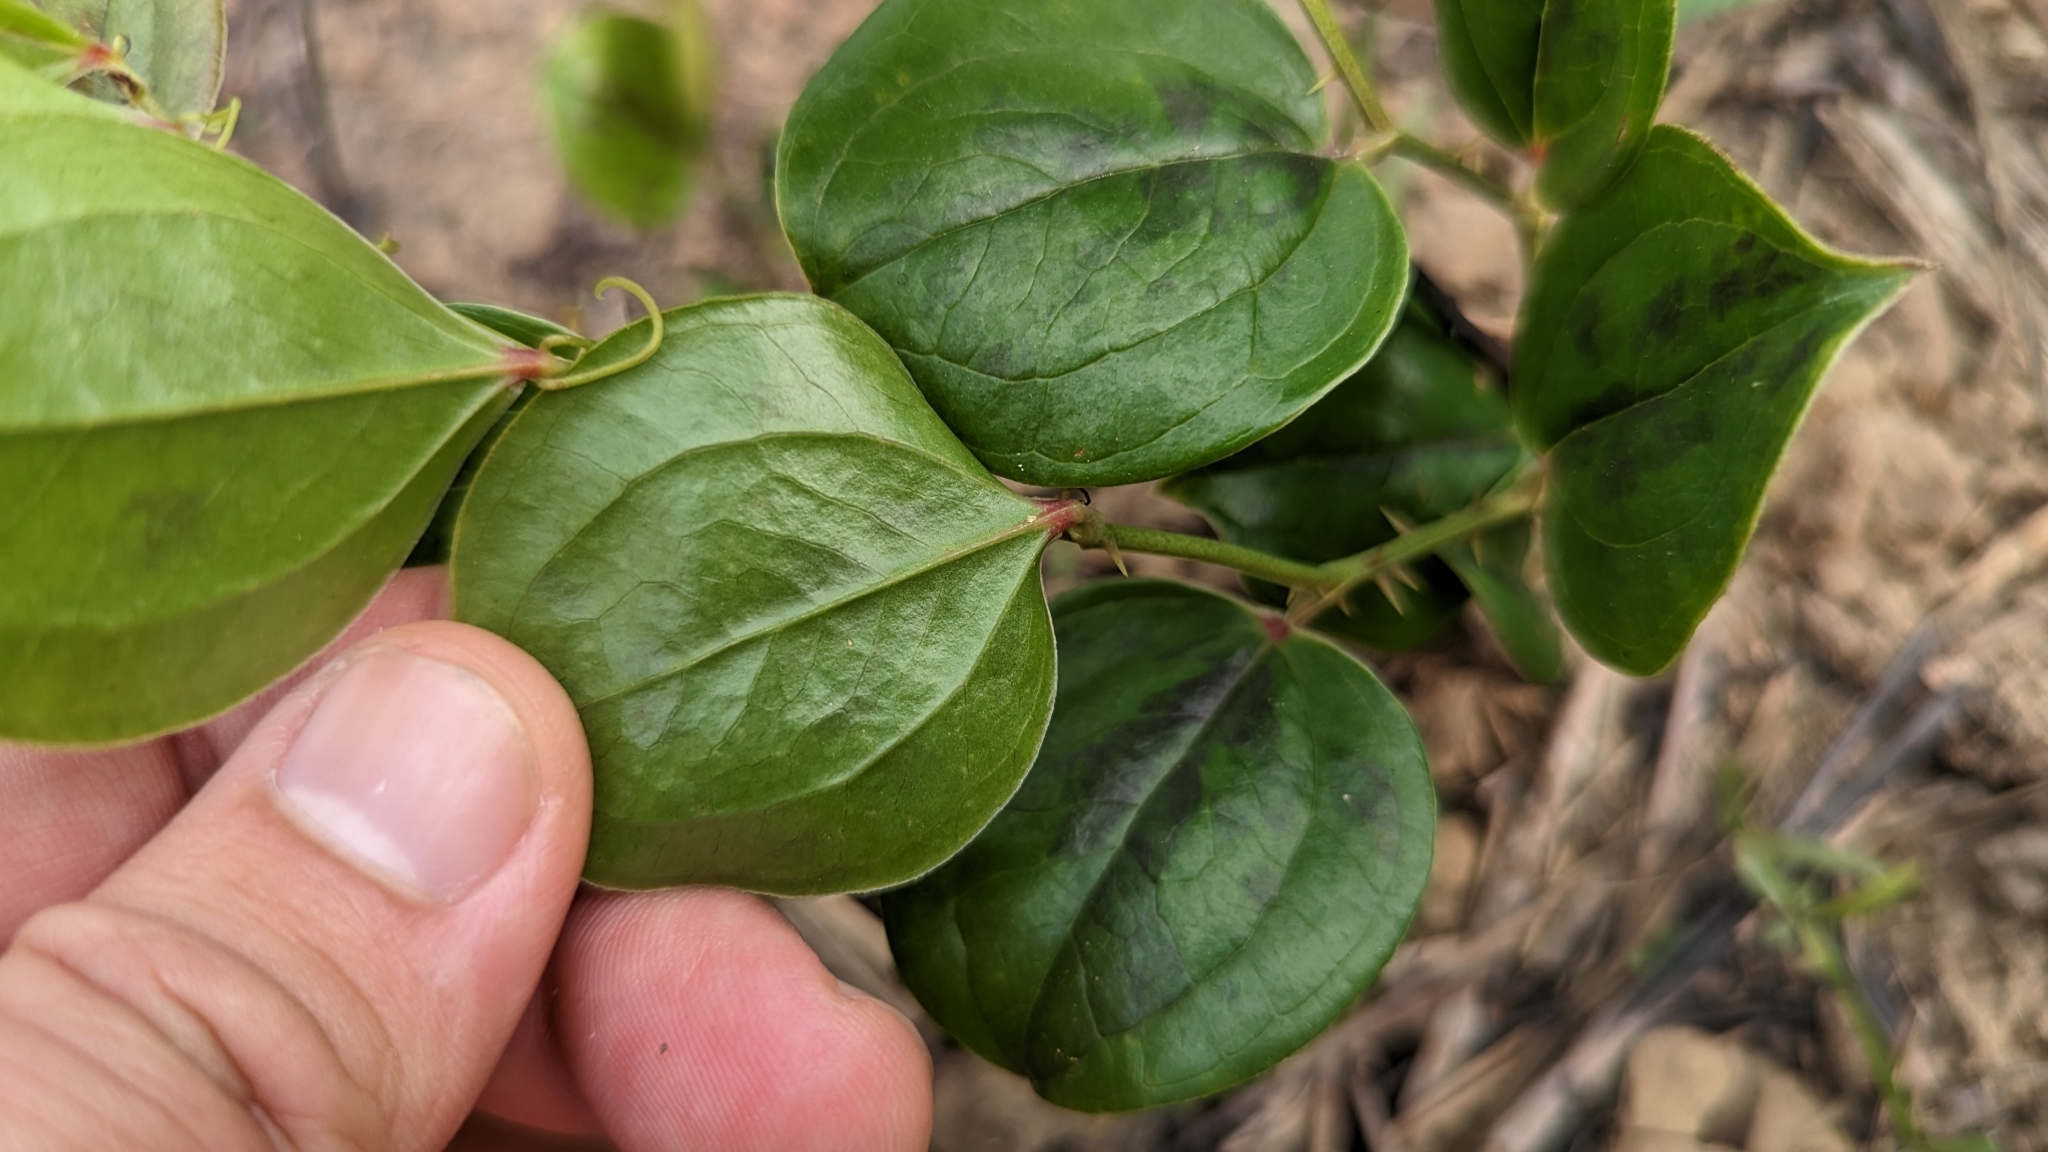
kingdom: Plantae
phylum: Tracheophyta
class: Liliopsida
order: Liliales
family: Smilacaceae
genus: Smilax
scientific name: Smilax china
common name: Chinaroot
